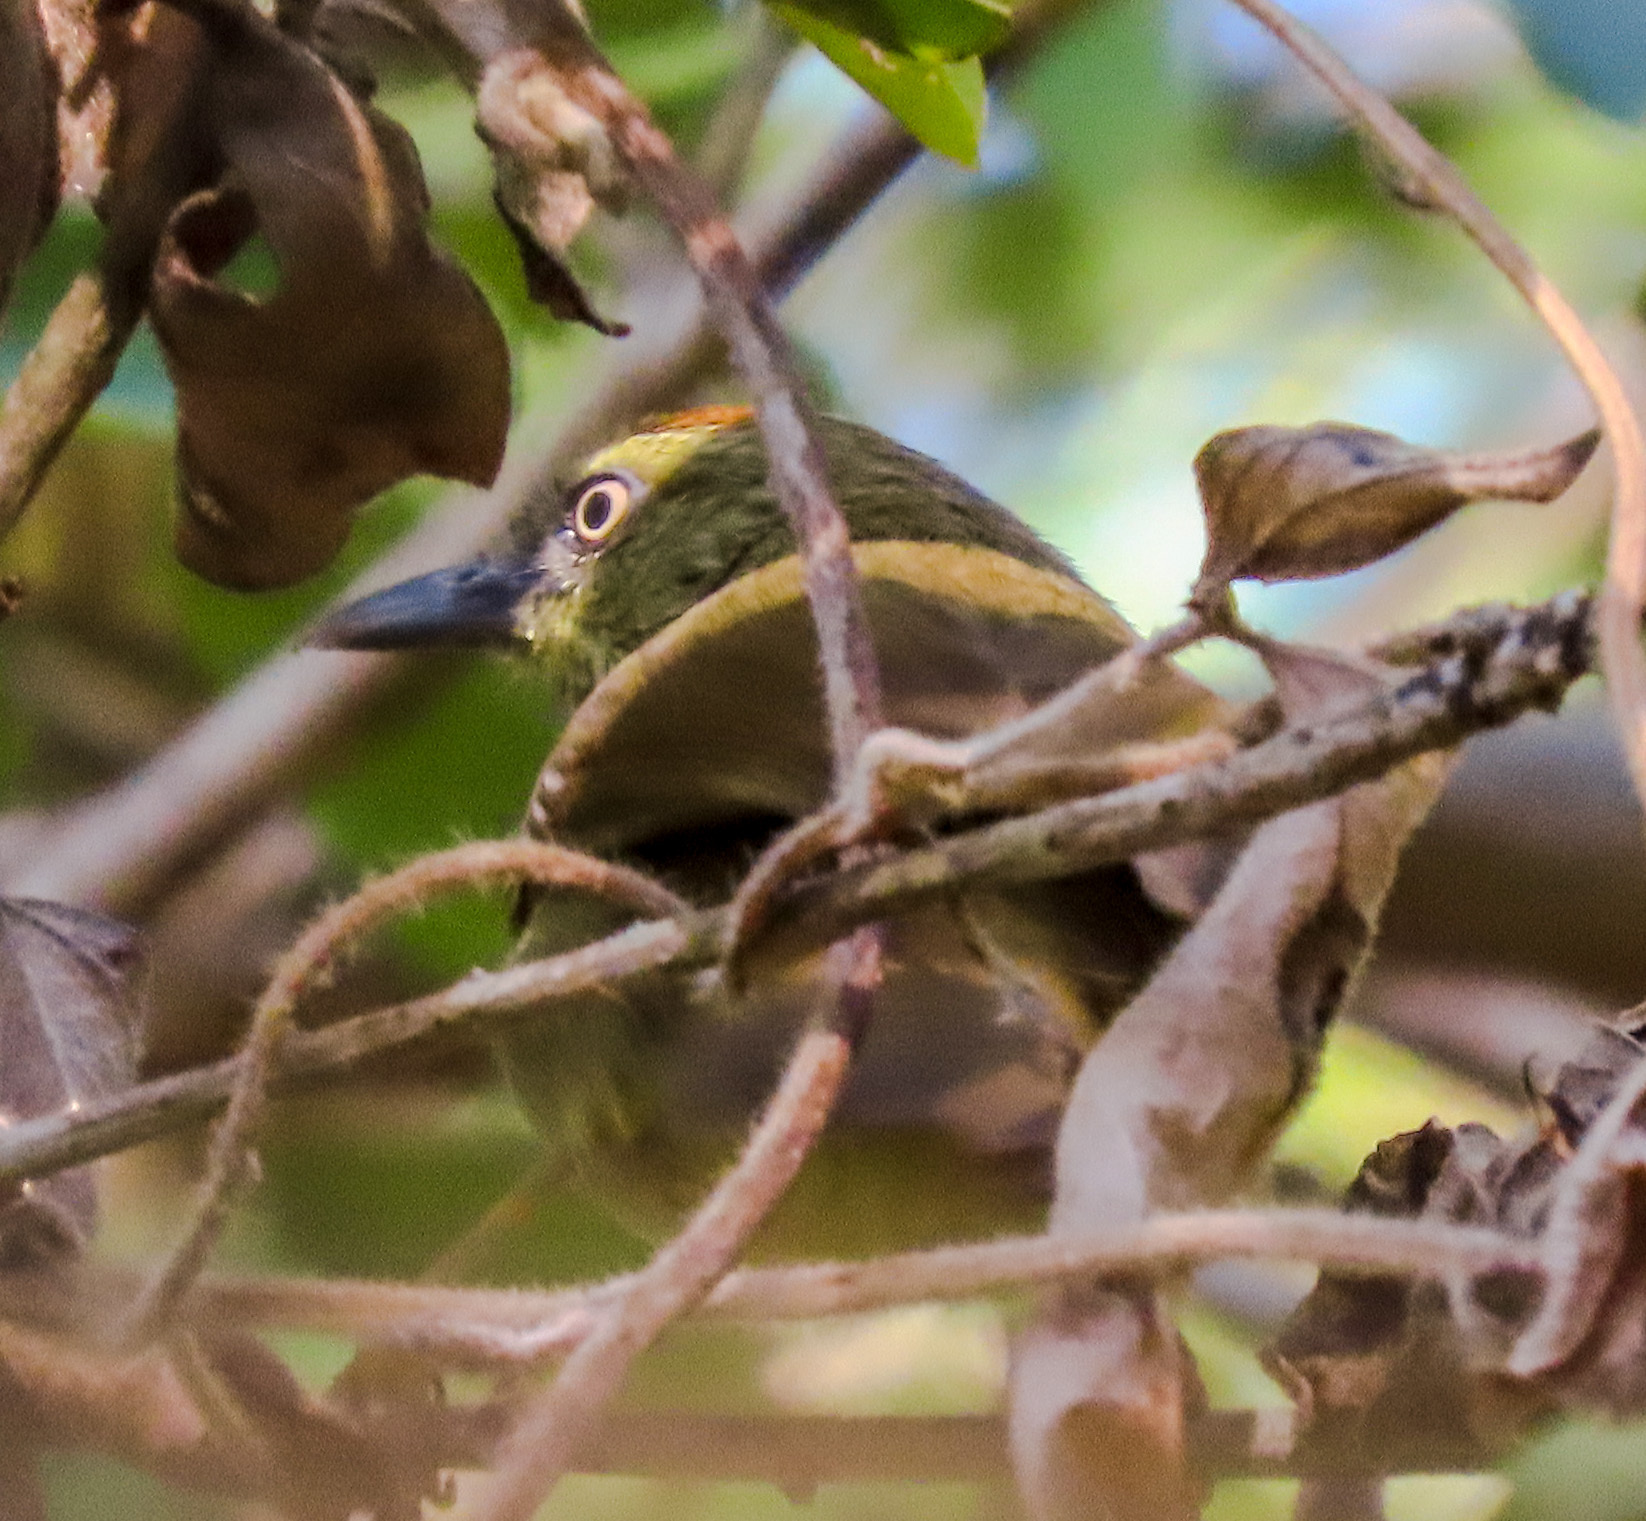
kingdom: Animalia
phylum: Chordata
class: Aves
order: Passeriformes
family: Timaliidae
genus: Macronus
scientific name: Macronus gularis
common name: Striped tit-babbler
